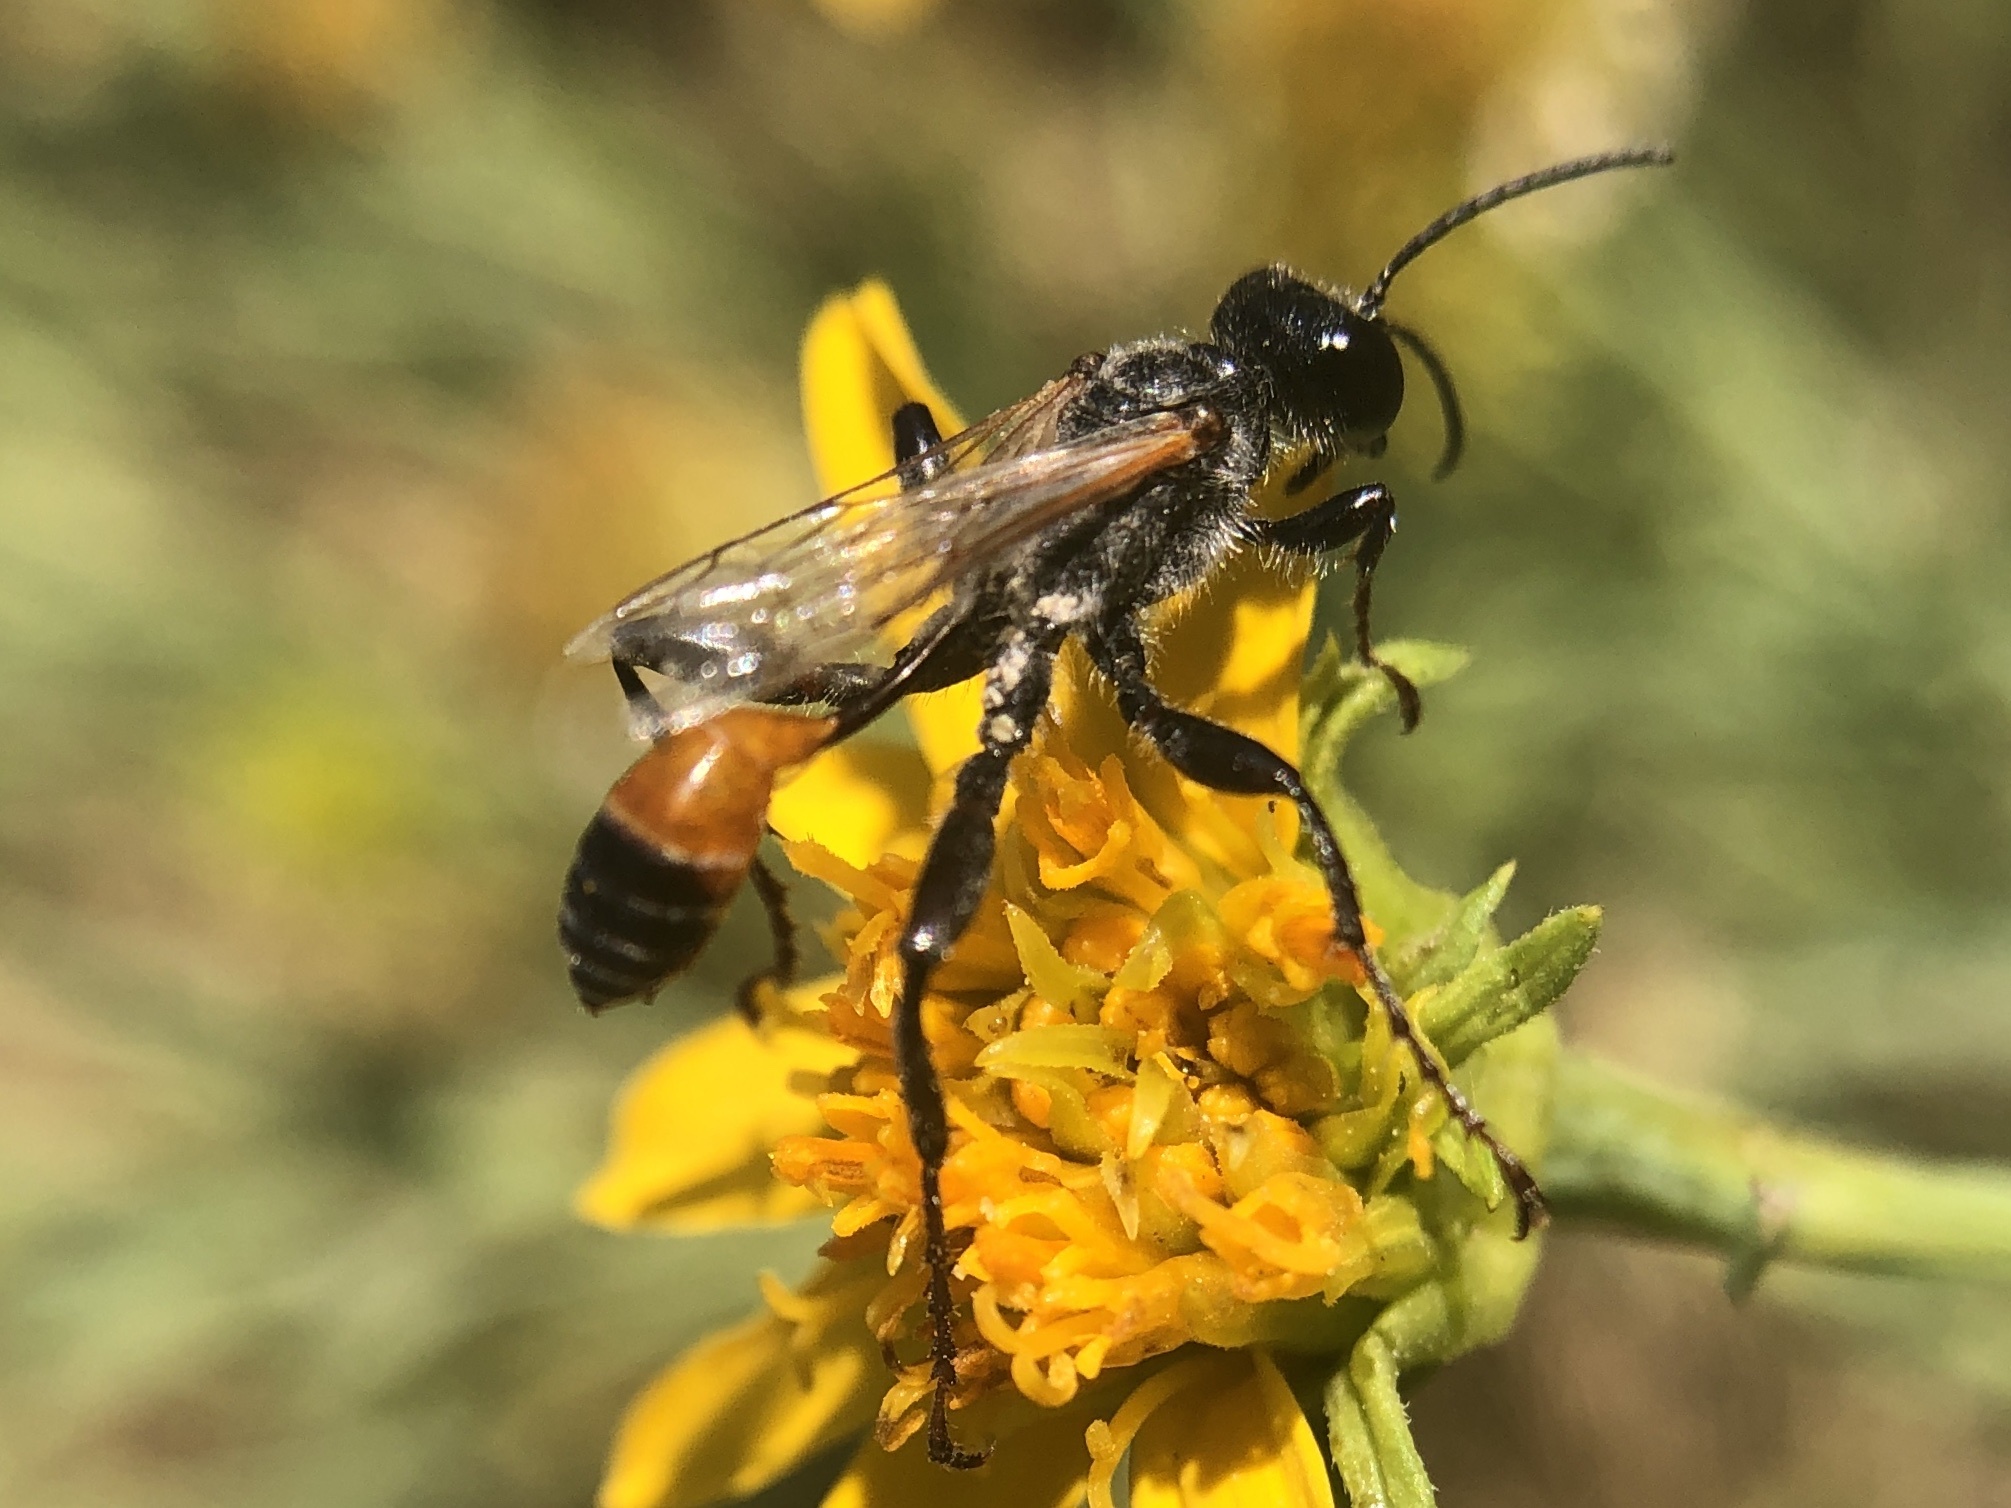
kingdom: Animalia
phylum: Arthropoda
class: Insecta
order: Hymenoptera
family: Sphecidae
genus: Prionyx
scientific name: Prionyx kirbii
